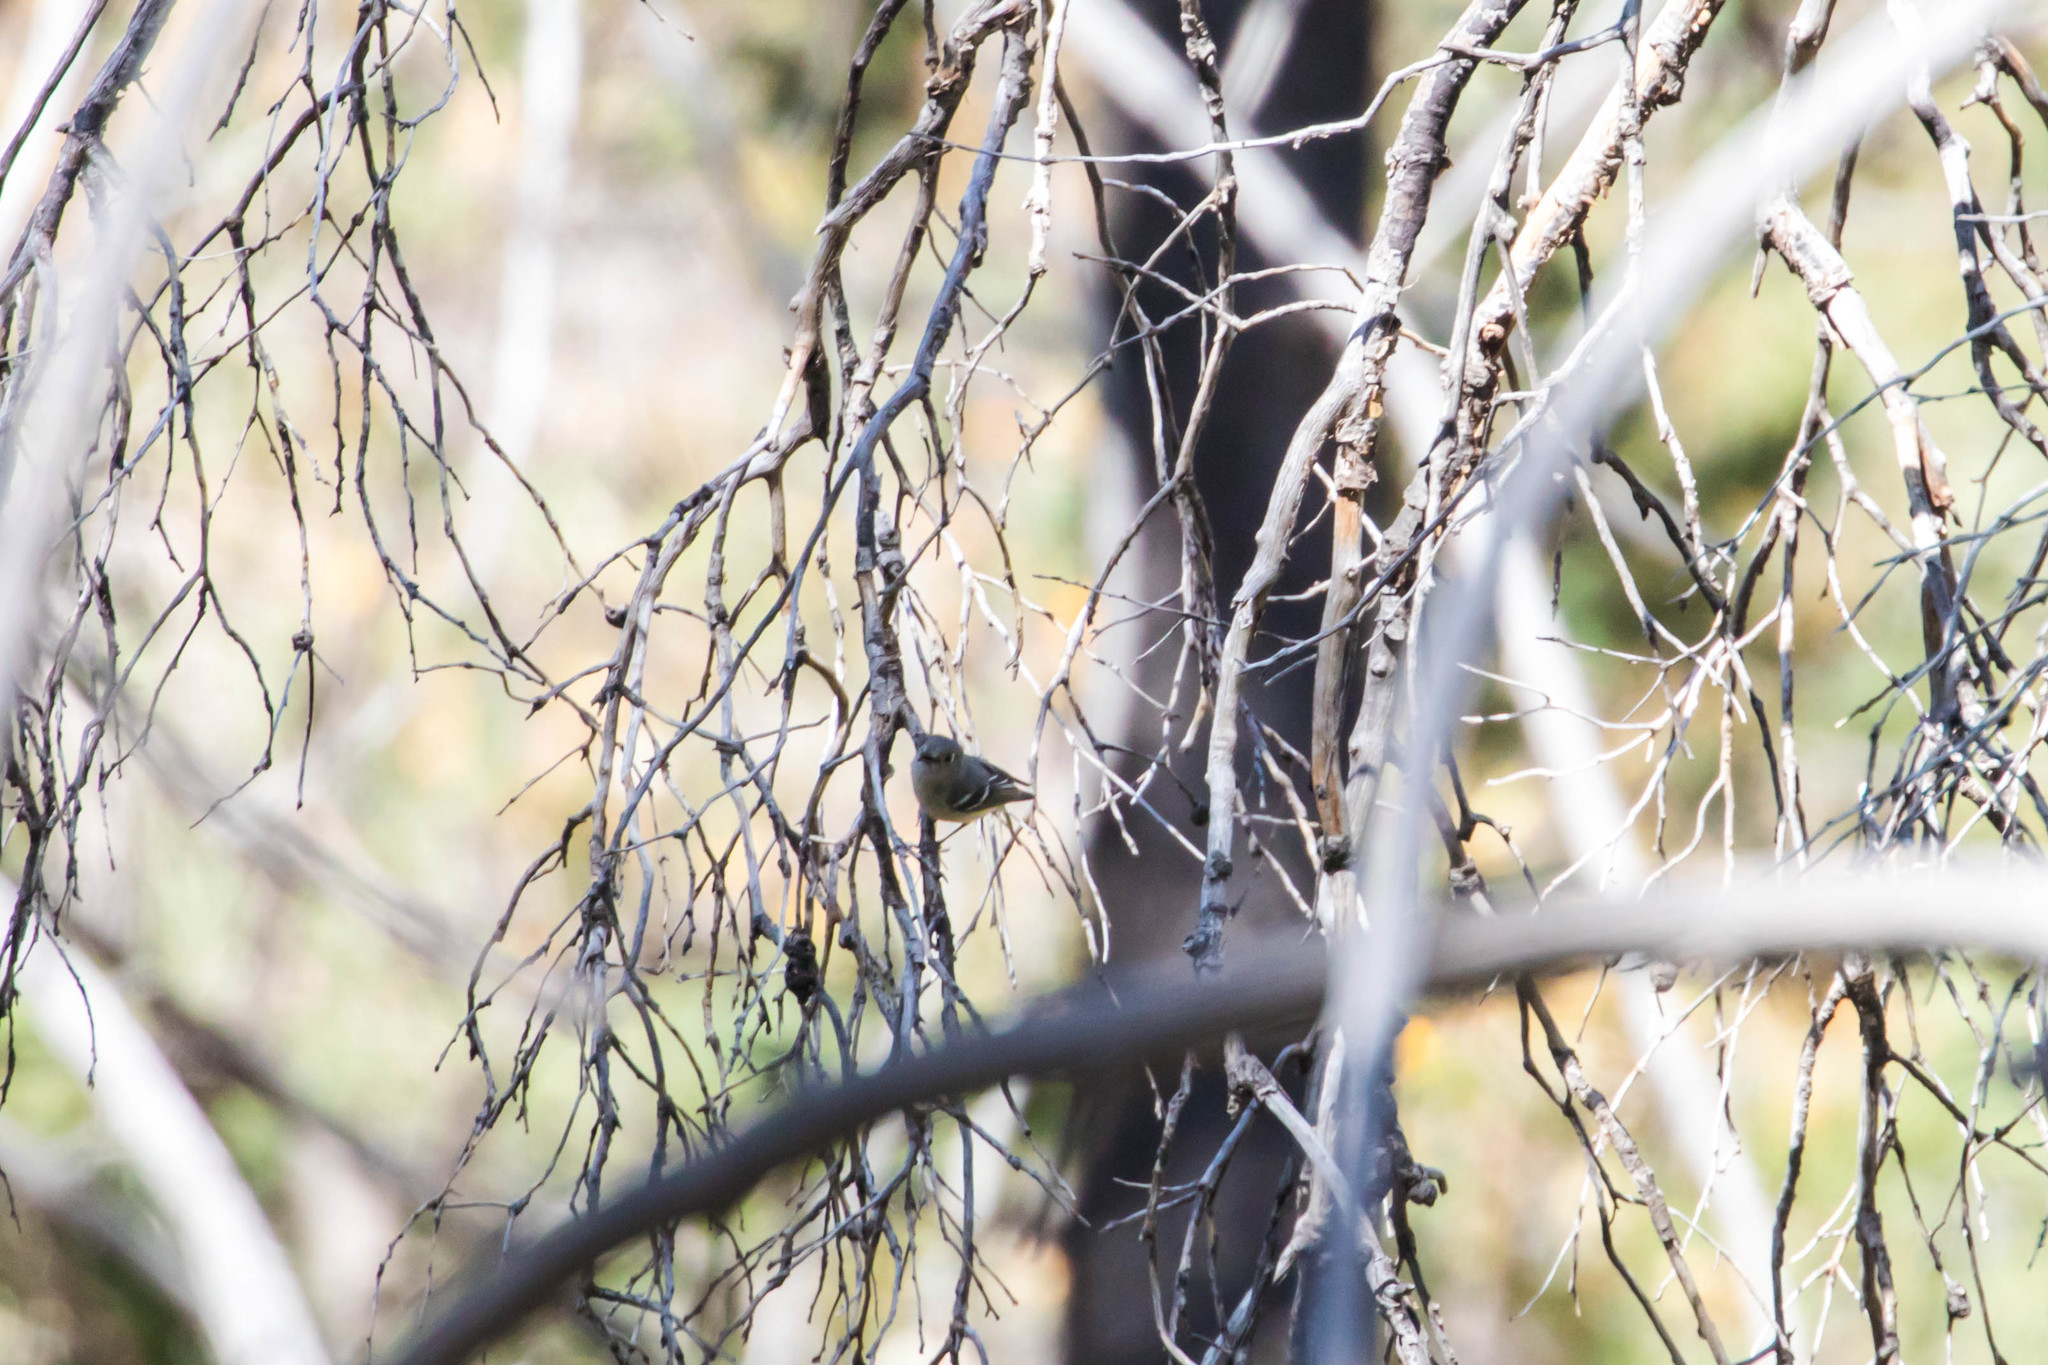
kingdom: Animalia
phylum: Chordata
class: Aves
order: Passeriformes
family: Regulidae
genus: Regulus
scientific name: Regulus calendula
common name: Ruby-crowned kinglet
